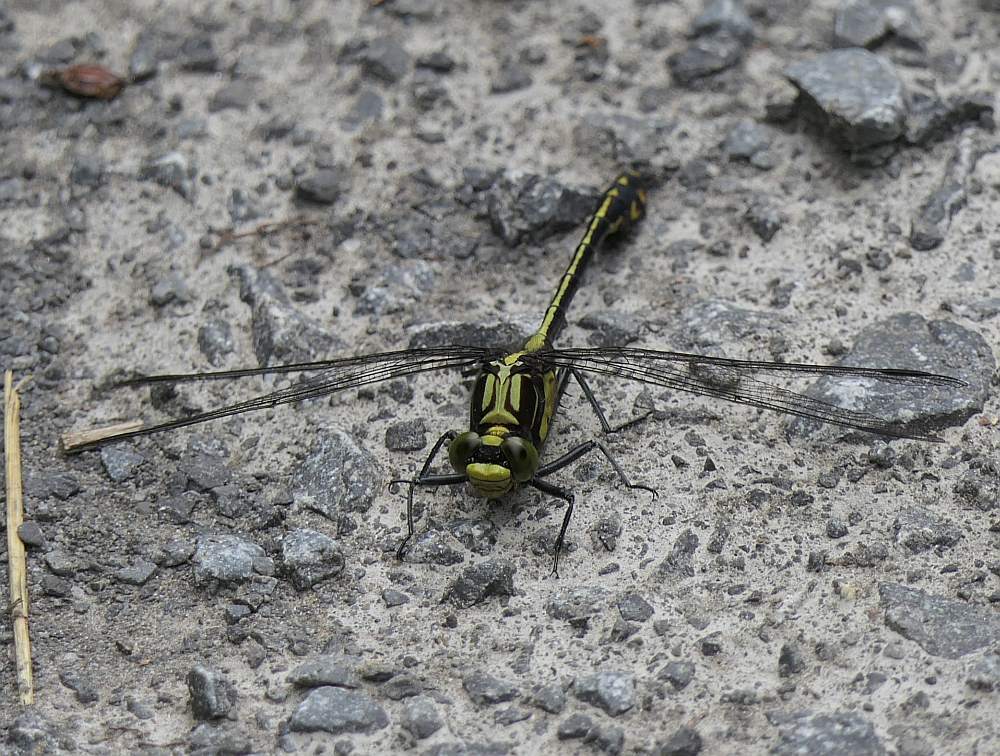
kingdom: Animalia
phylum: Arthropoda
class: Insecta
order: Odonata
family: Gomphidae
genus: Dromogomphus
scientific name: Dromogomphus spinosus
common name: Black-shouldered spinyleg
